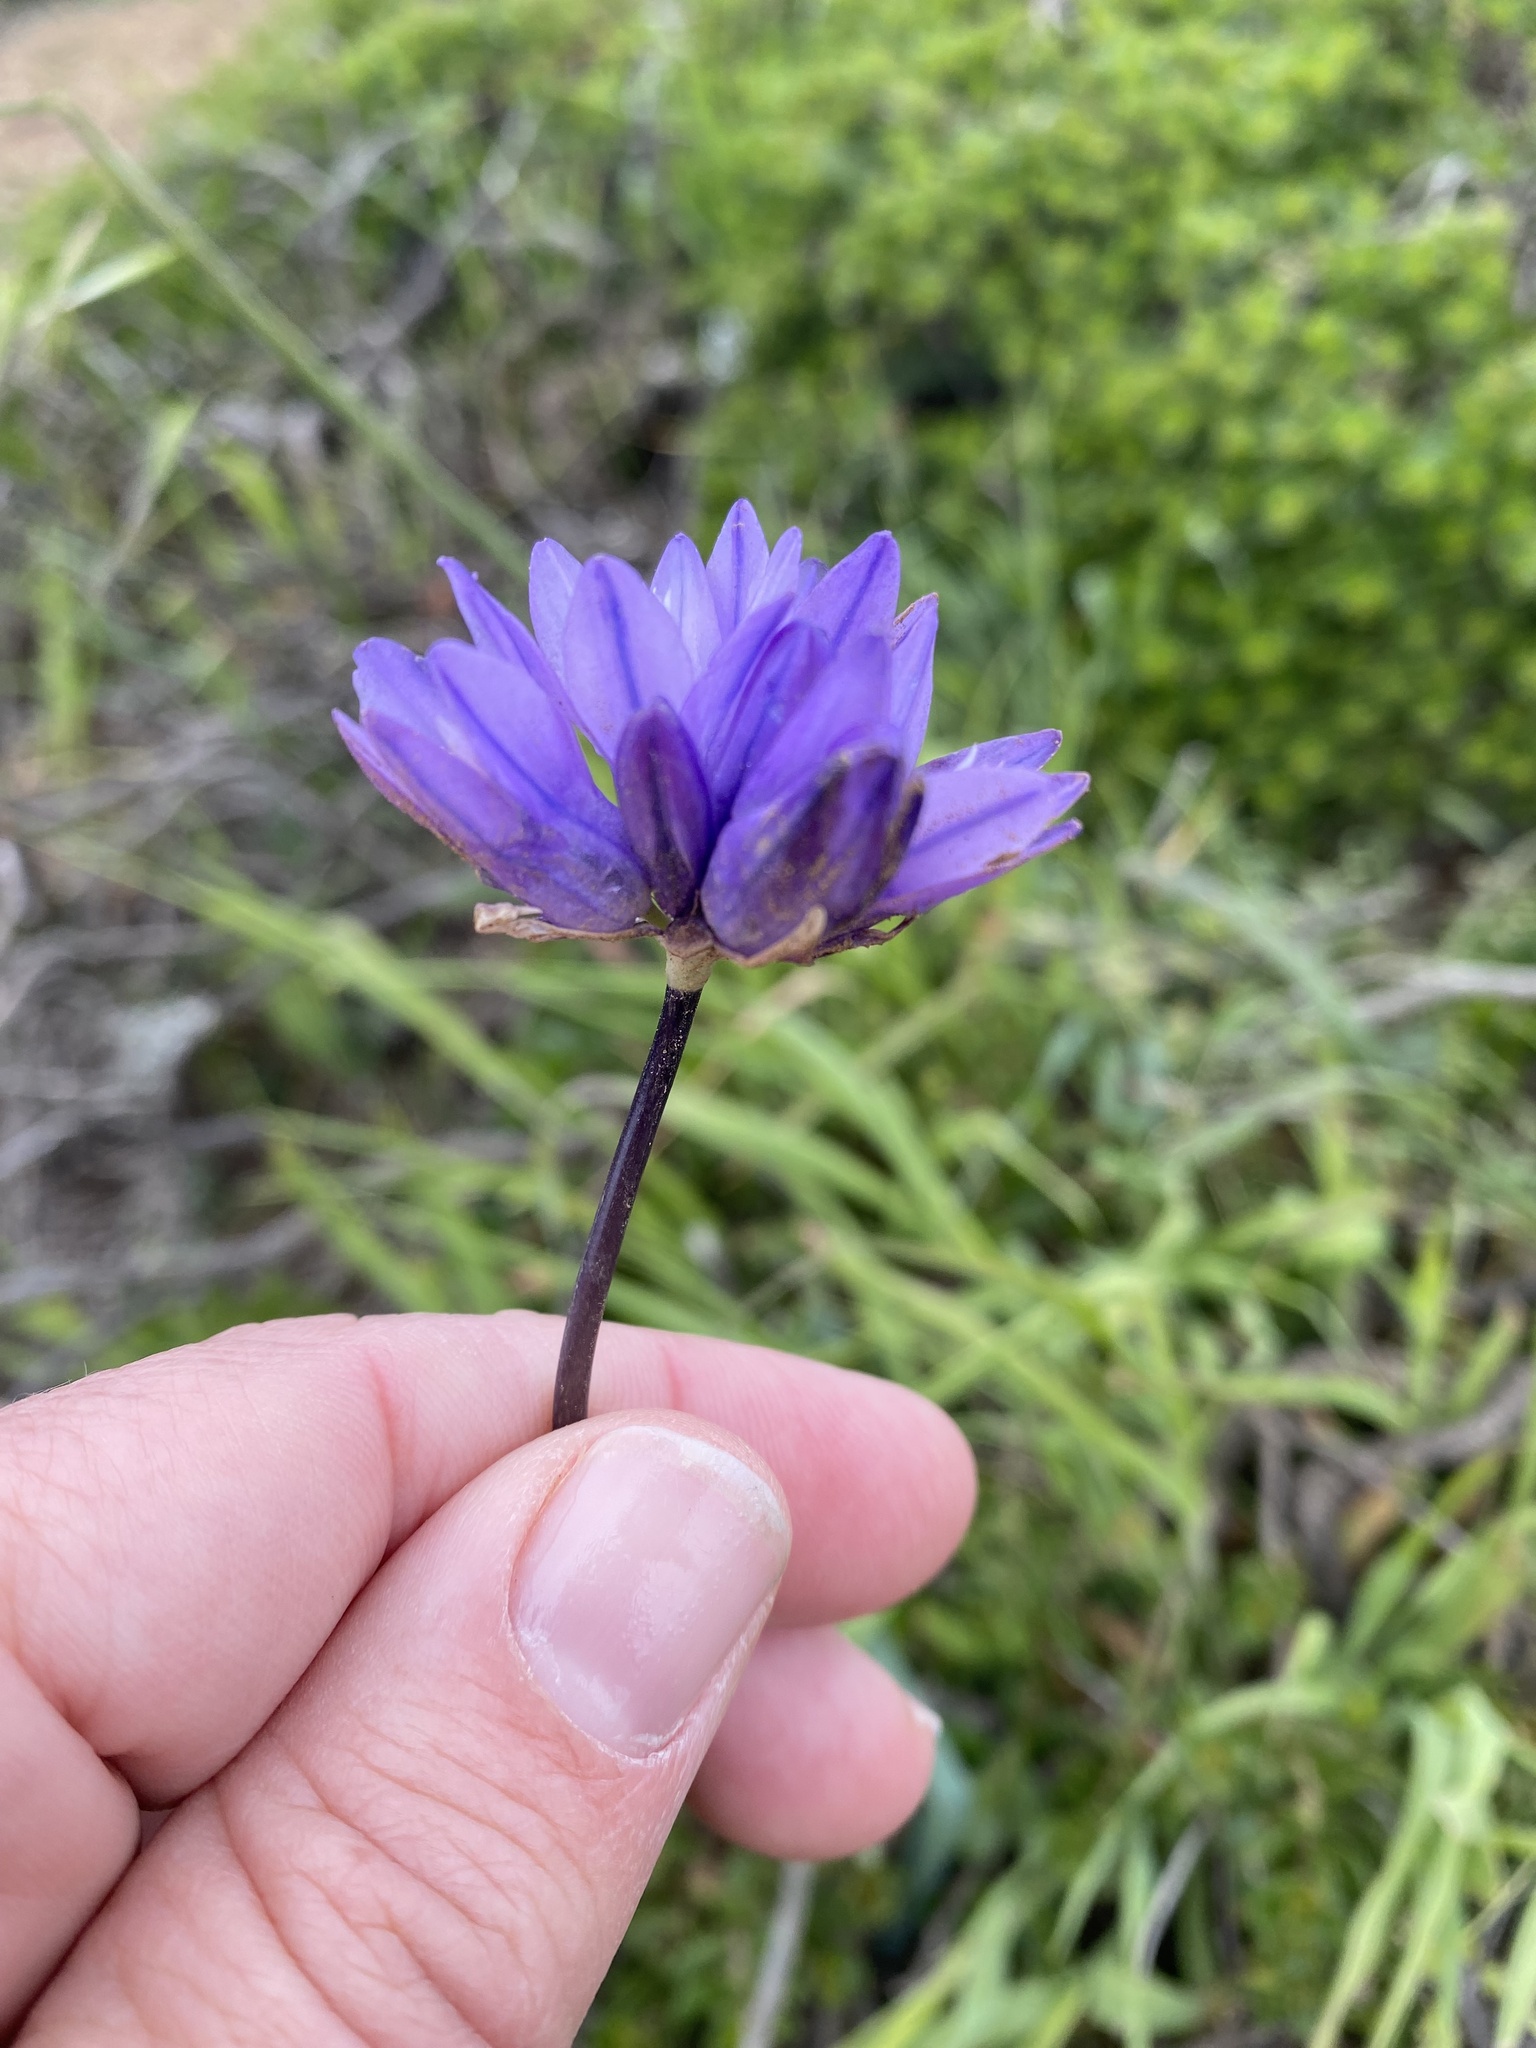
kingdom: Plantae
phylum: Tracheophyta
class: Liliopsida
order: Asparagales
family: Asparagaceae
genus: Dipterostemon
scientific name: Dipterostemon capitatus
